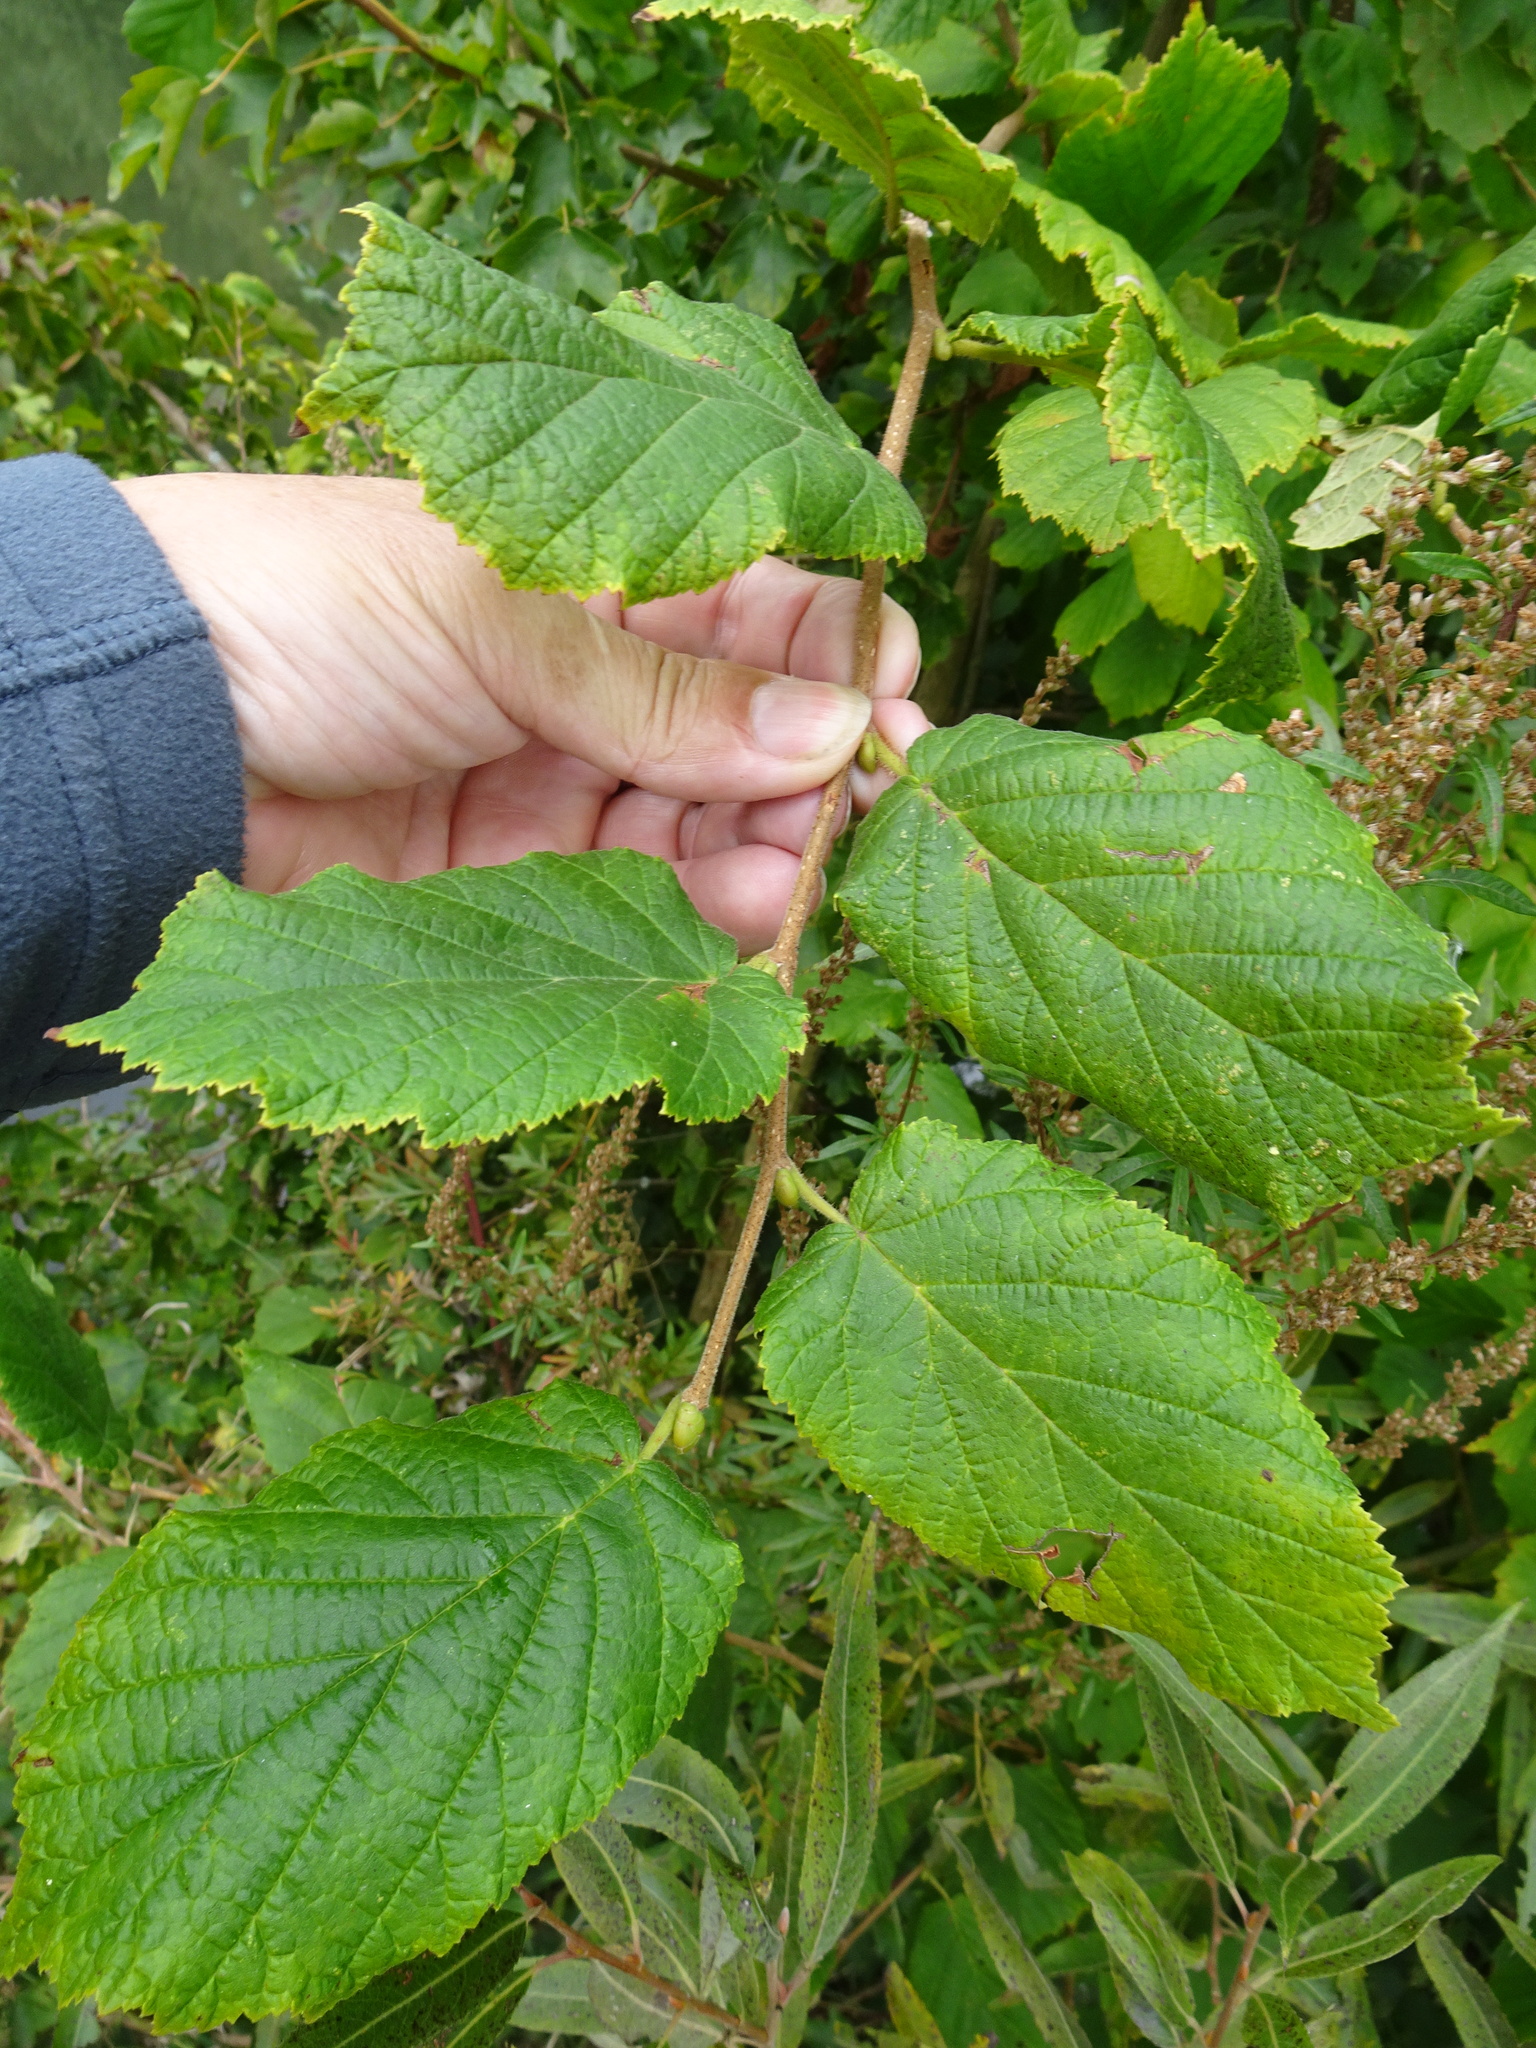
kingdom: Plantae
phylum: Tracheophyta
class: Magnoliopsida
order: Fagales
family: Betulaceae
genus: Corylus
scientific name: Corylus avellana
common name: European hazel
